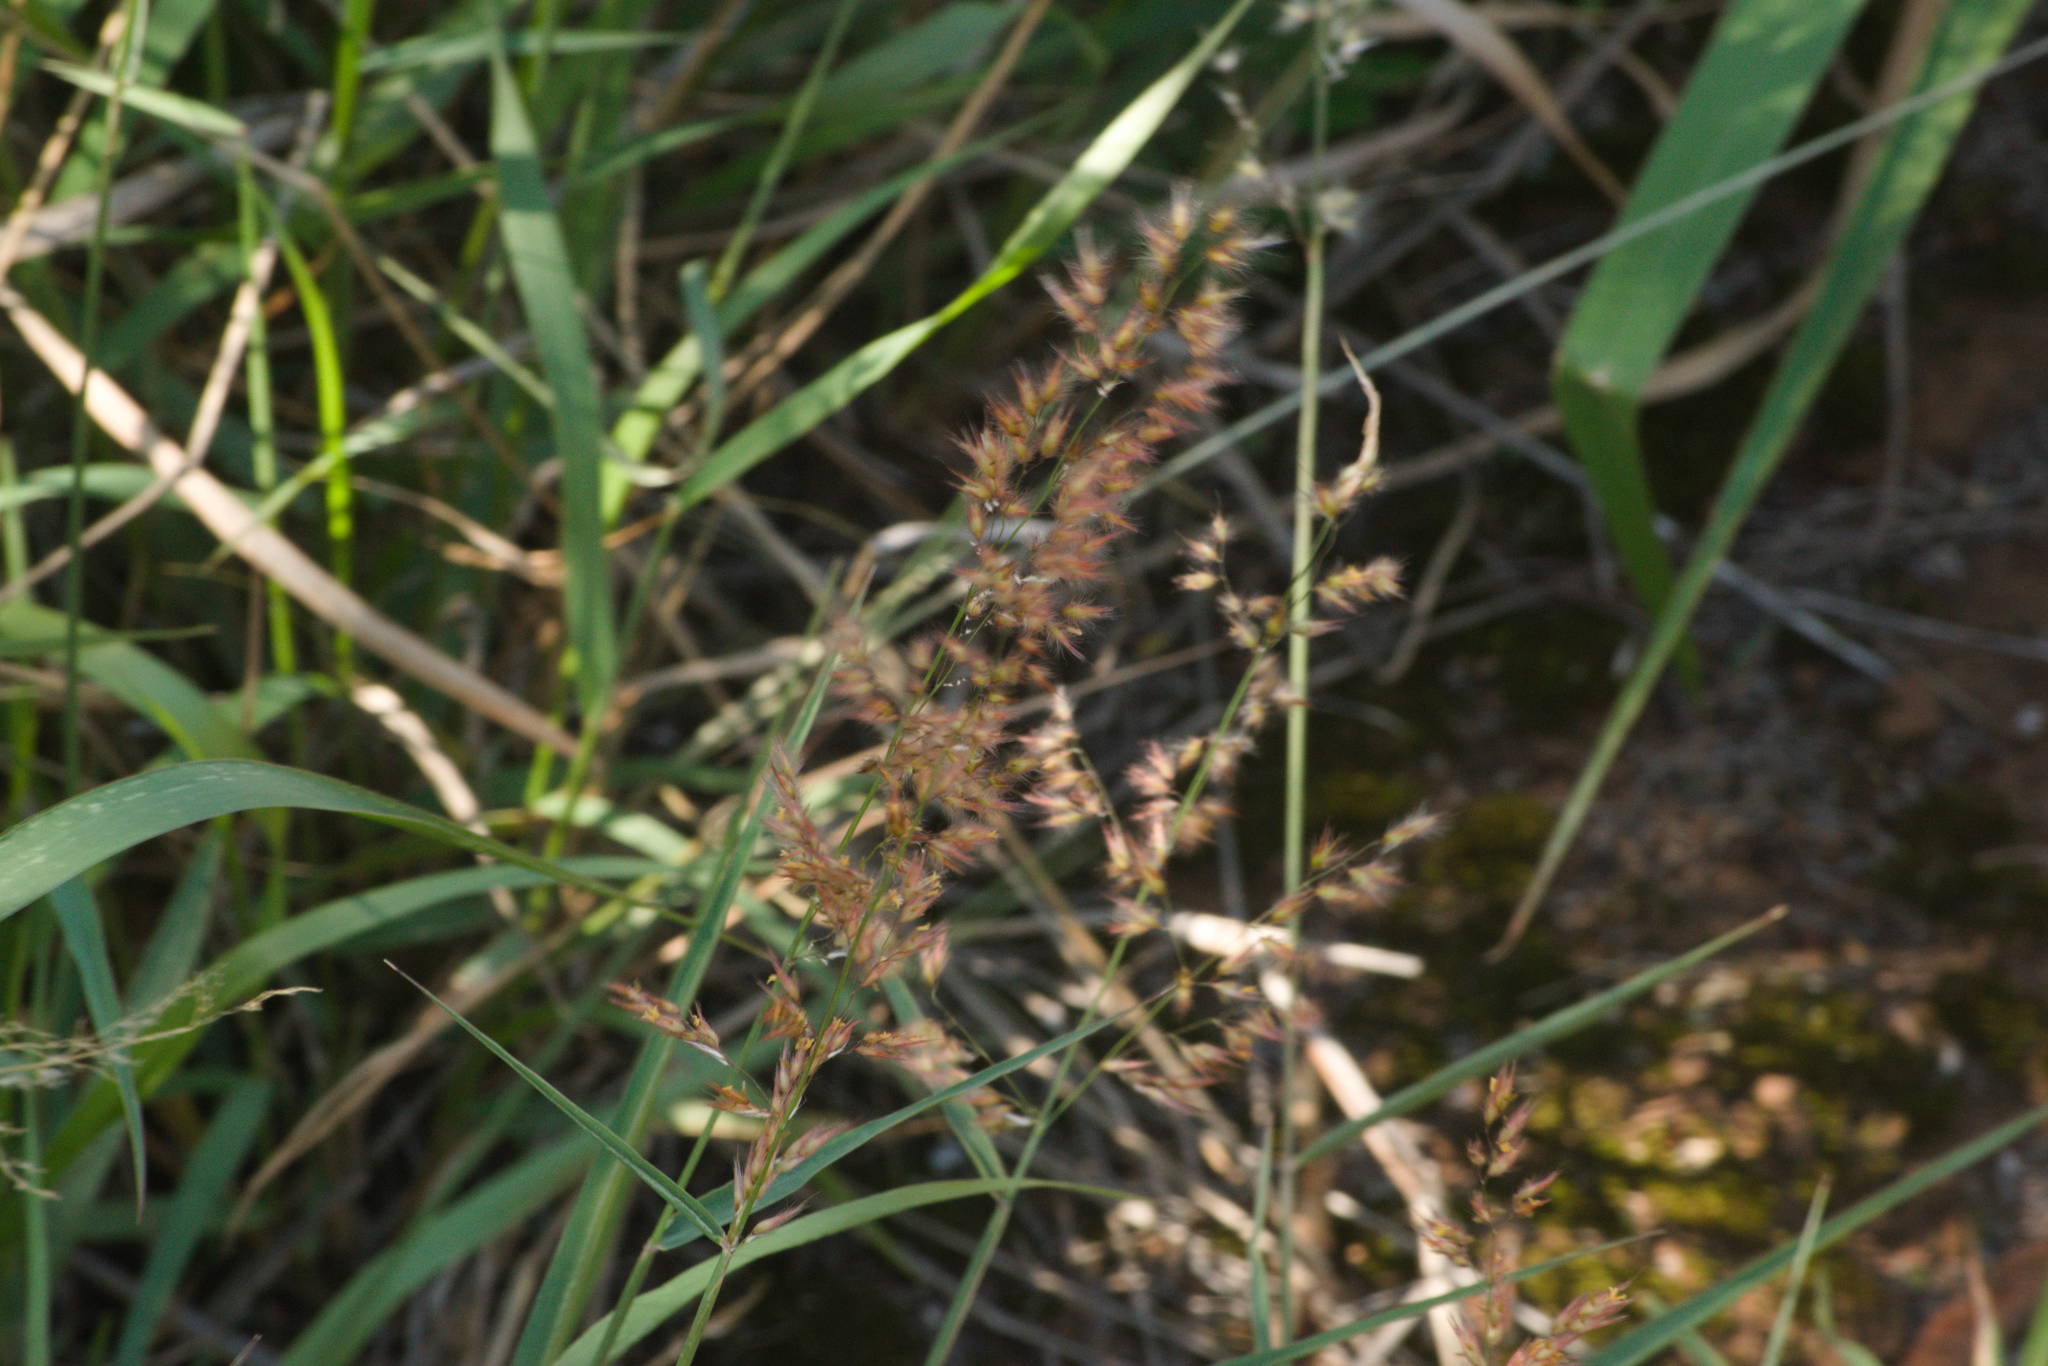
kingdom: Plantae
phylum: Tracheophyta
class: Liliopsida
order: Poales
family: Poaceae
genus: Melinis
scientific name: Melinis repens
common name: Rose natal grass
